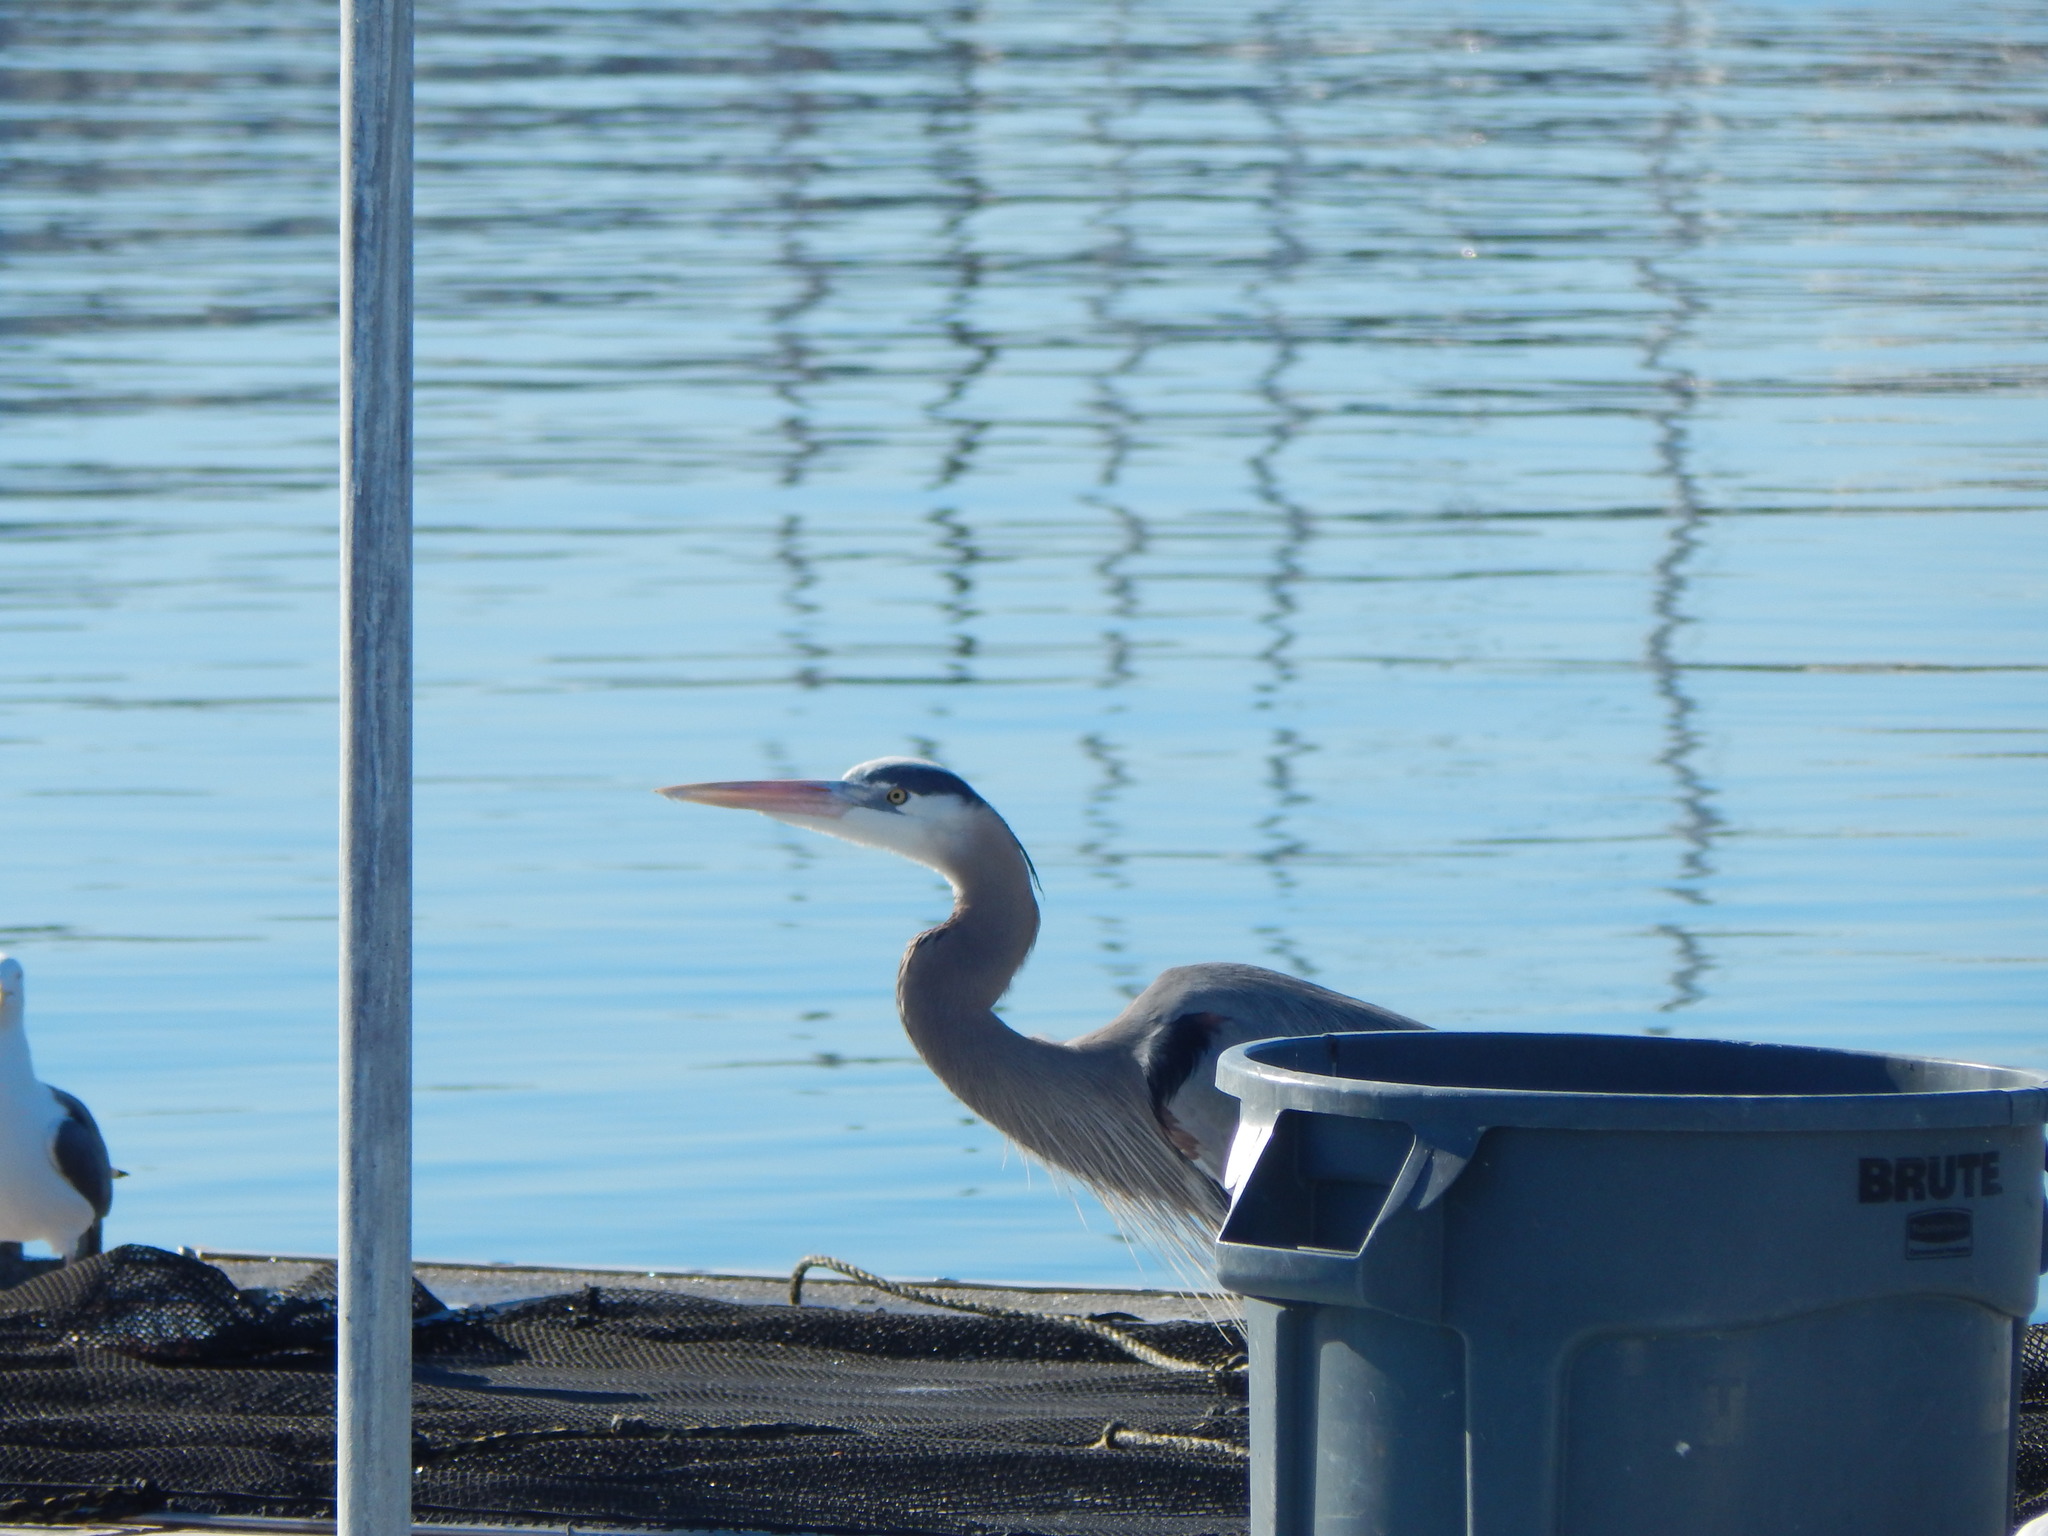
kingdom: Animalia
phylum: Chordata
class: Aves
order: Pelecaniformes
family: Ardeidae
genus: Ardea
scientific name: Ardea herodias
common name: Great blue heron
